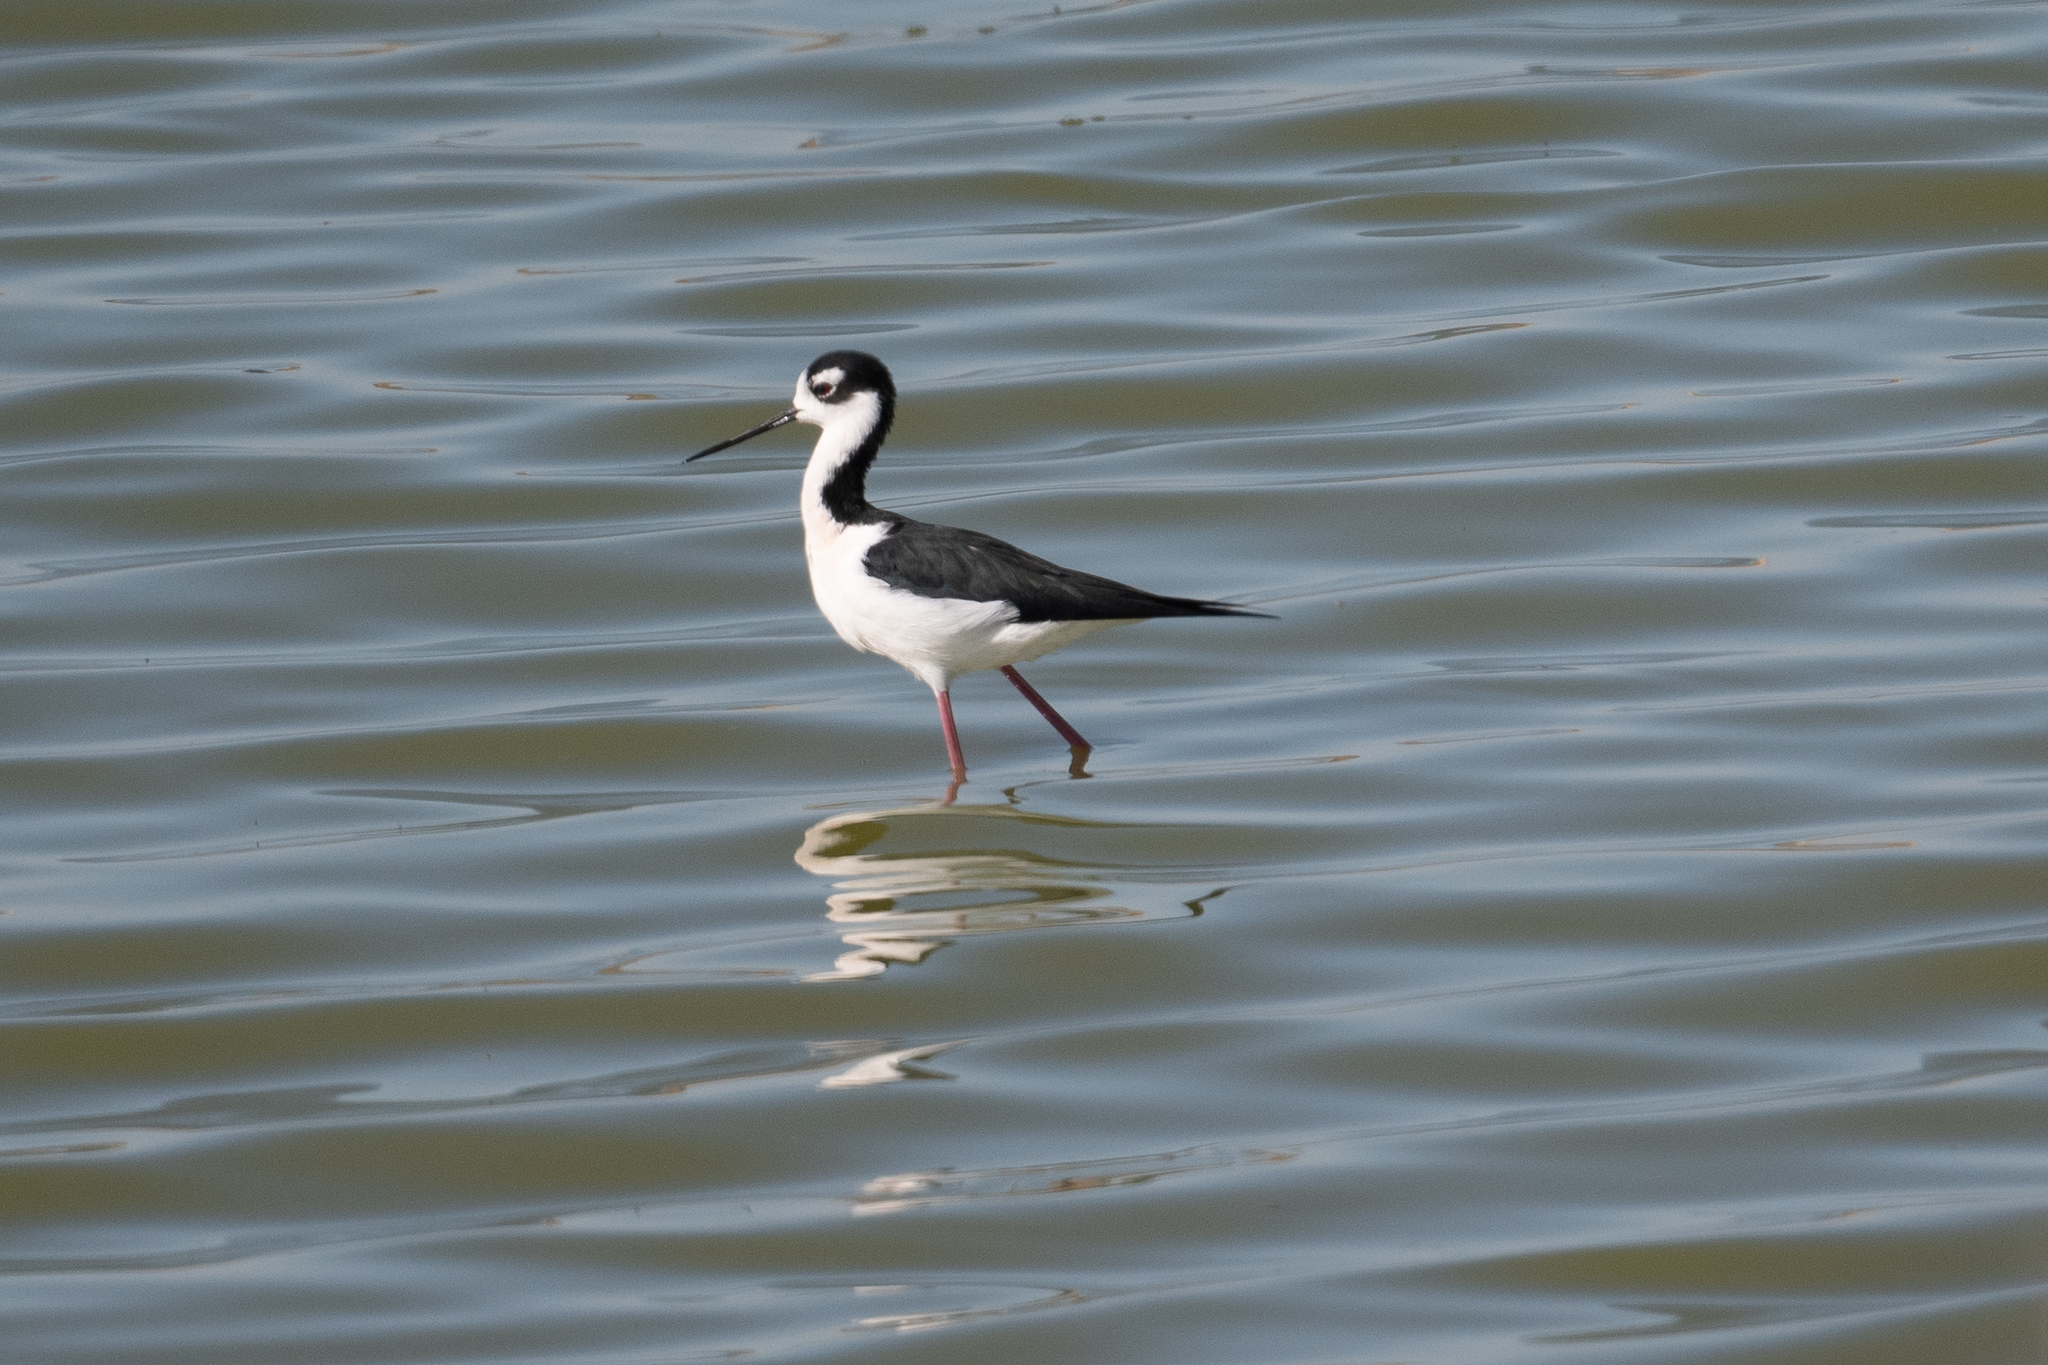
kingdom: Animalia
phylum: Chordata
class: Aves
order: Charadriiformes
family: Recurvirostridae
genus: Himantopus
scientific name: Himantopus mexicanus
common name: Black-necked stilt
